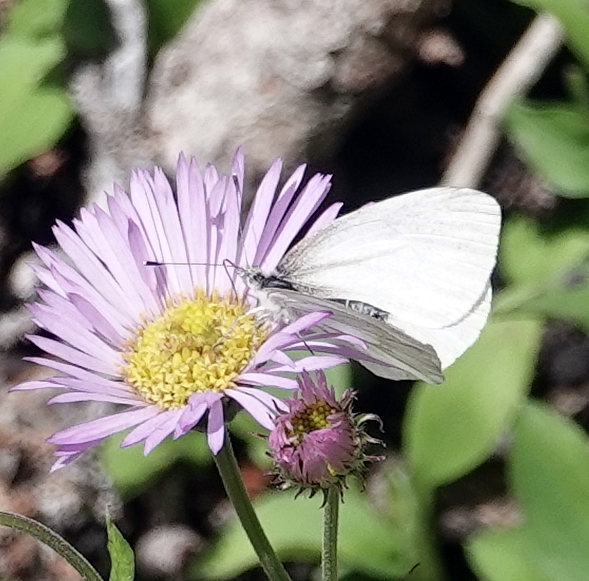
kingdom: Animalia
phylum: Arthropoda
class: Insecta
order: Lepidoptera
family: Pieridae
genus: Pieris
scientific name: Pieris marginalis
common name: Margined white
